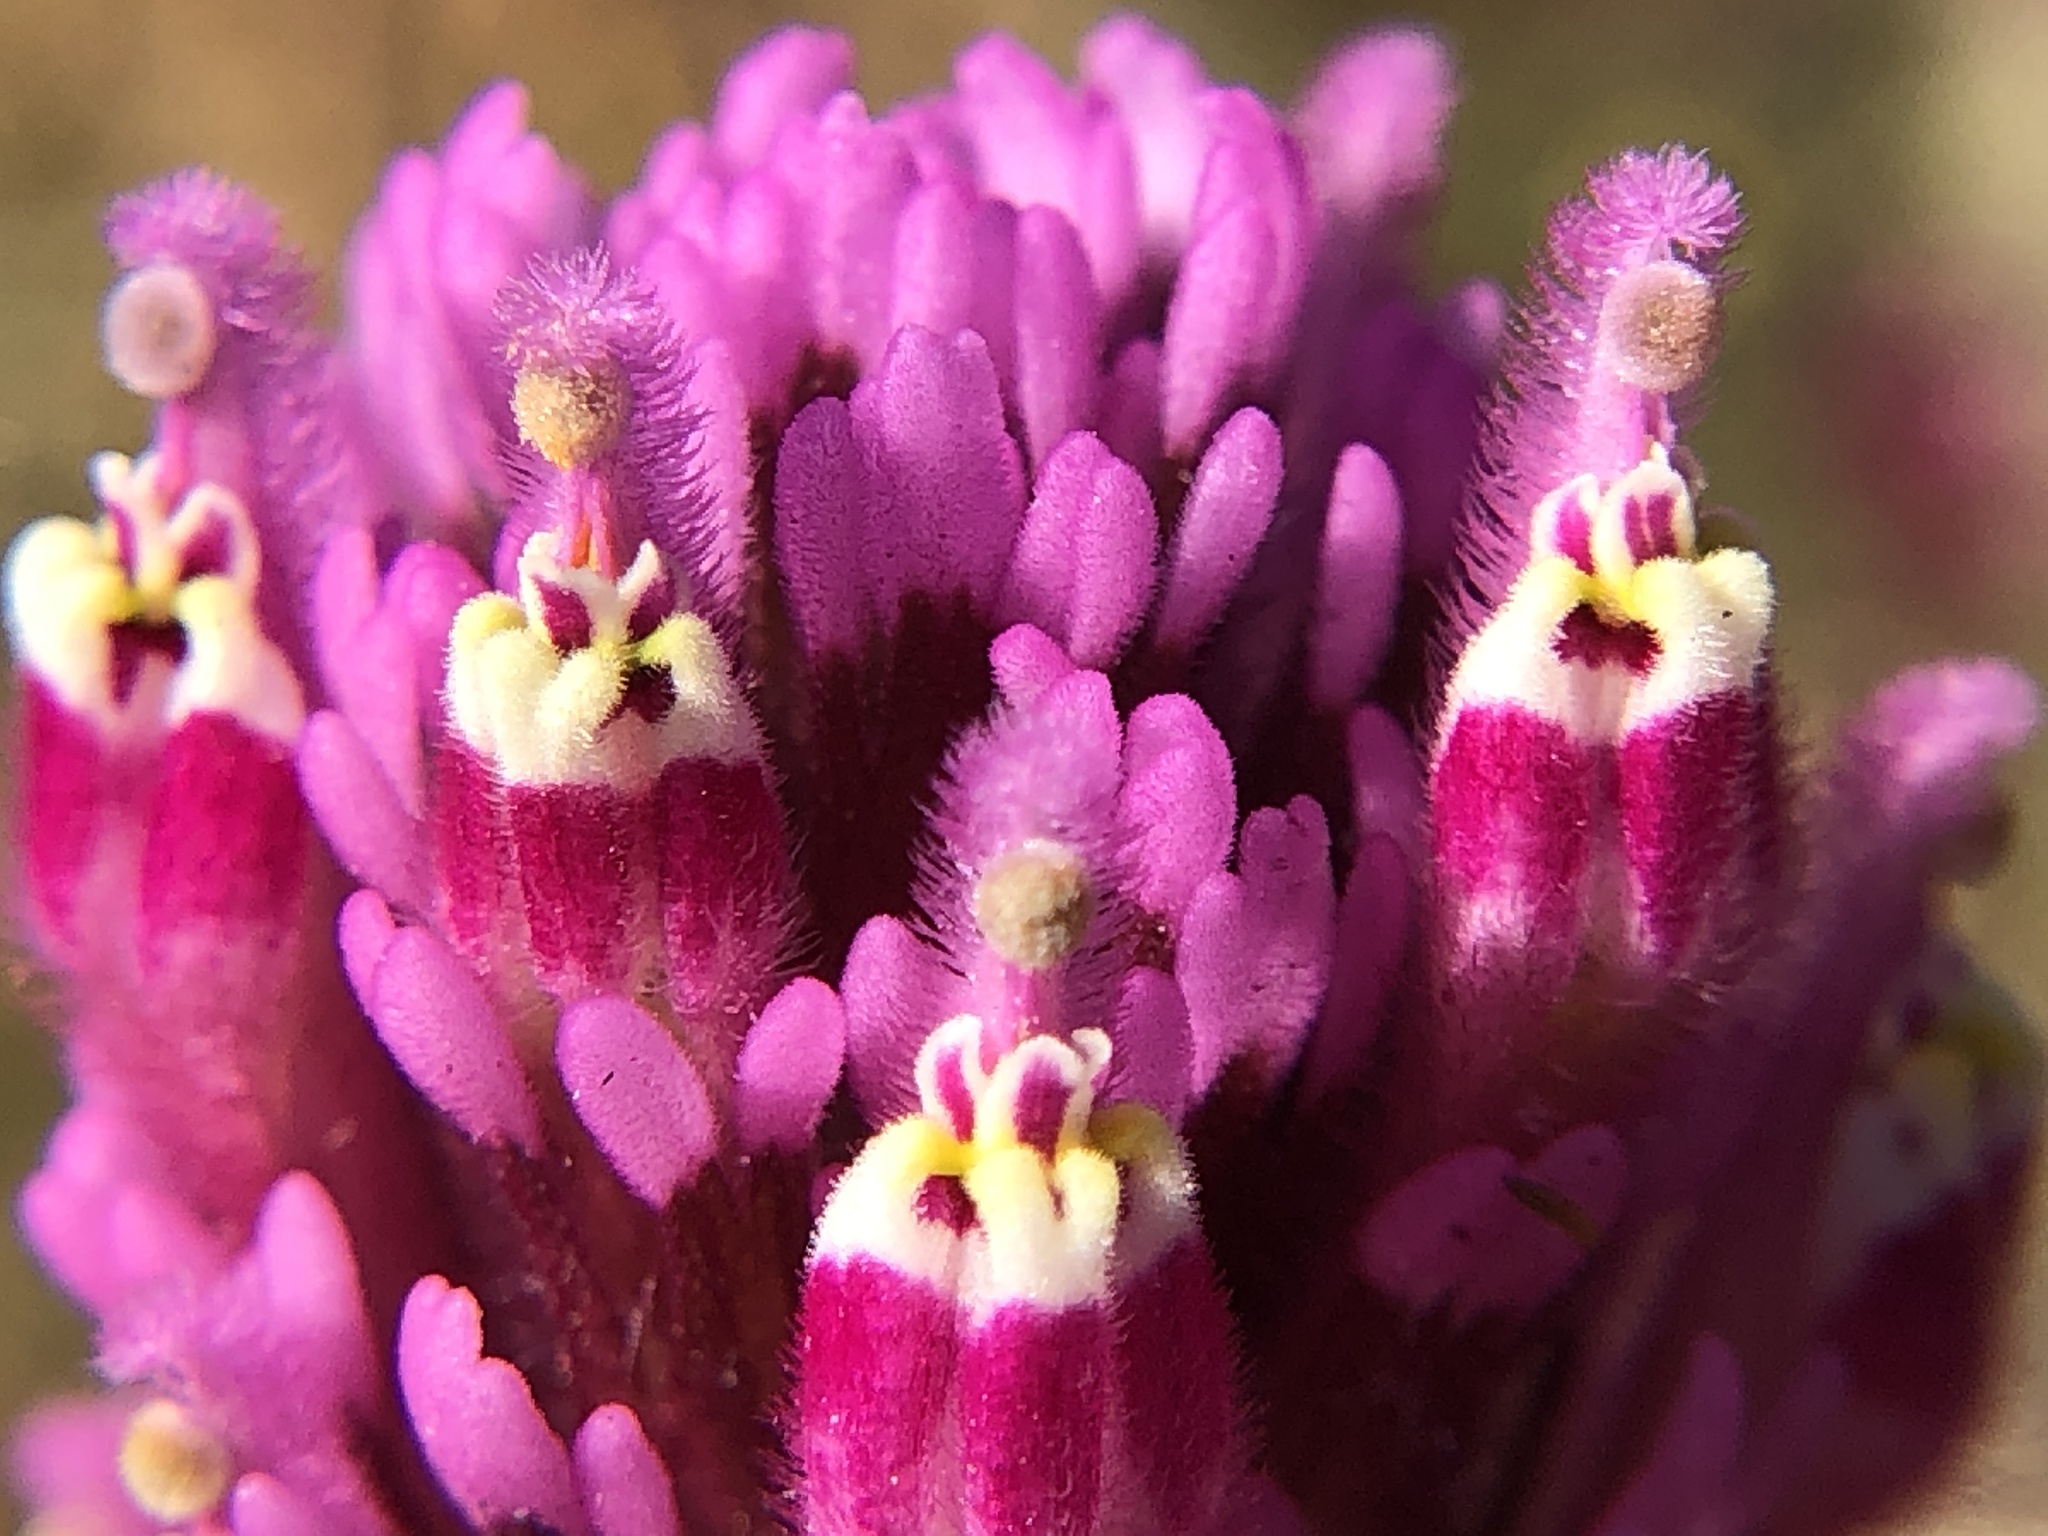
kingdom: Plantae
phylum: Tracheophyta
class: Magnoliopsida
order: Lamiales
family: Orobanchaceae
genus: Castilleja
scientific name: Castilleja exserta
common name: Purple owl-clover
